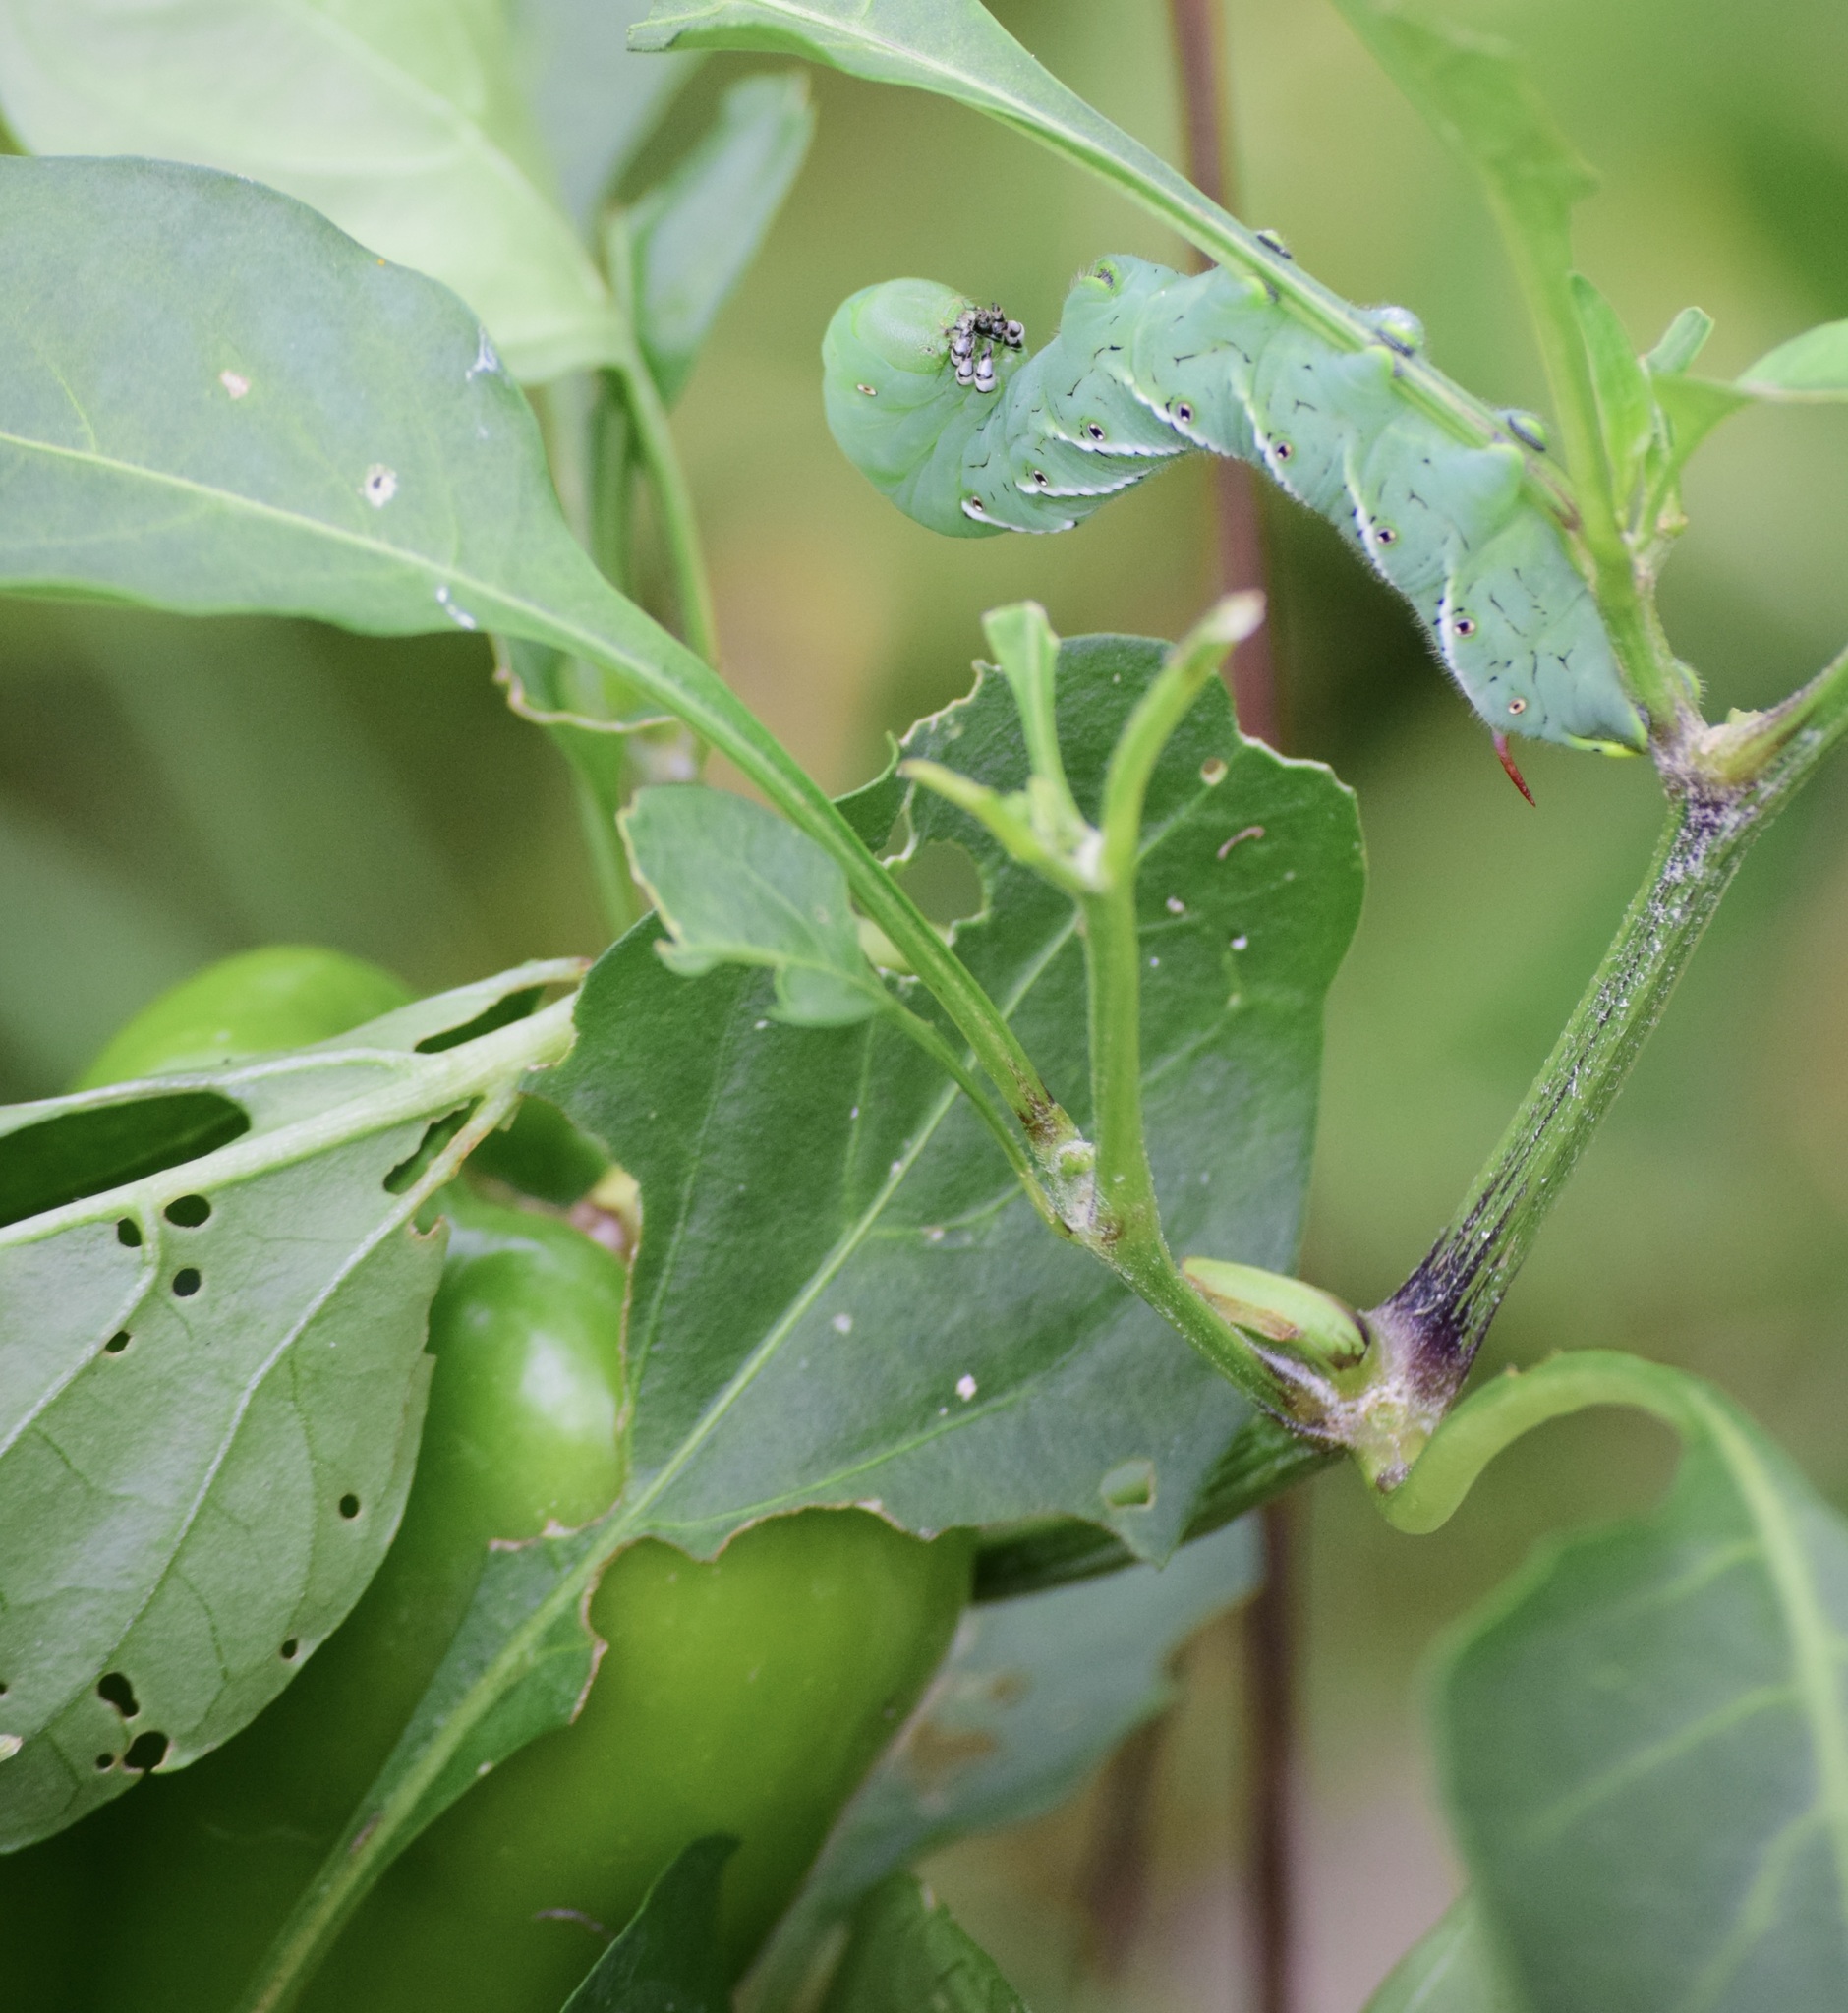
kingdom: Animalia
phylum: Arthropoda
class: Insecta
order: Lepidoptera
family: Sphingidae
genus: Manduca
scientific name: Manduca sexta
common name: Carolina sphinx
